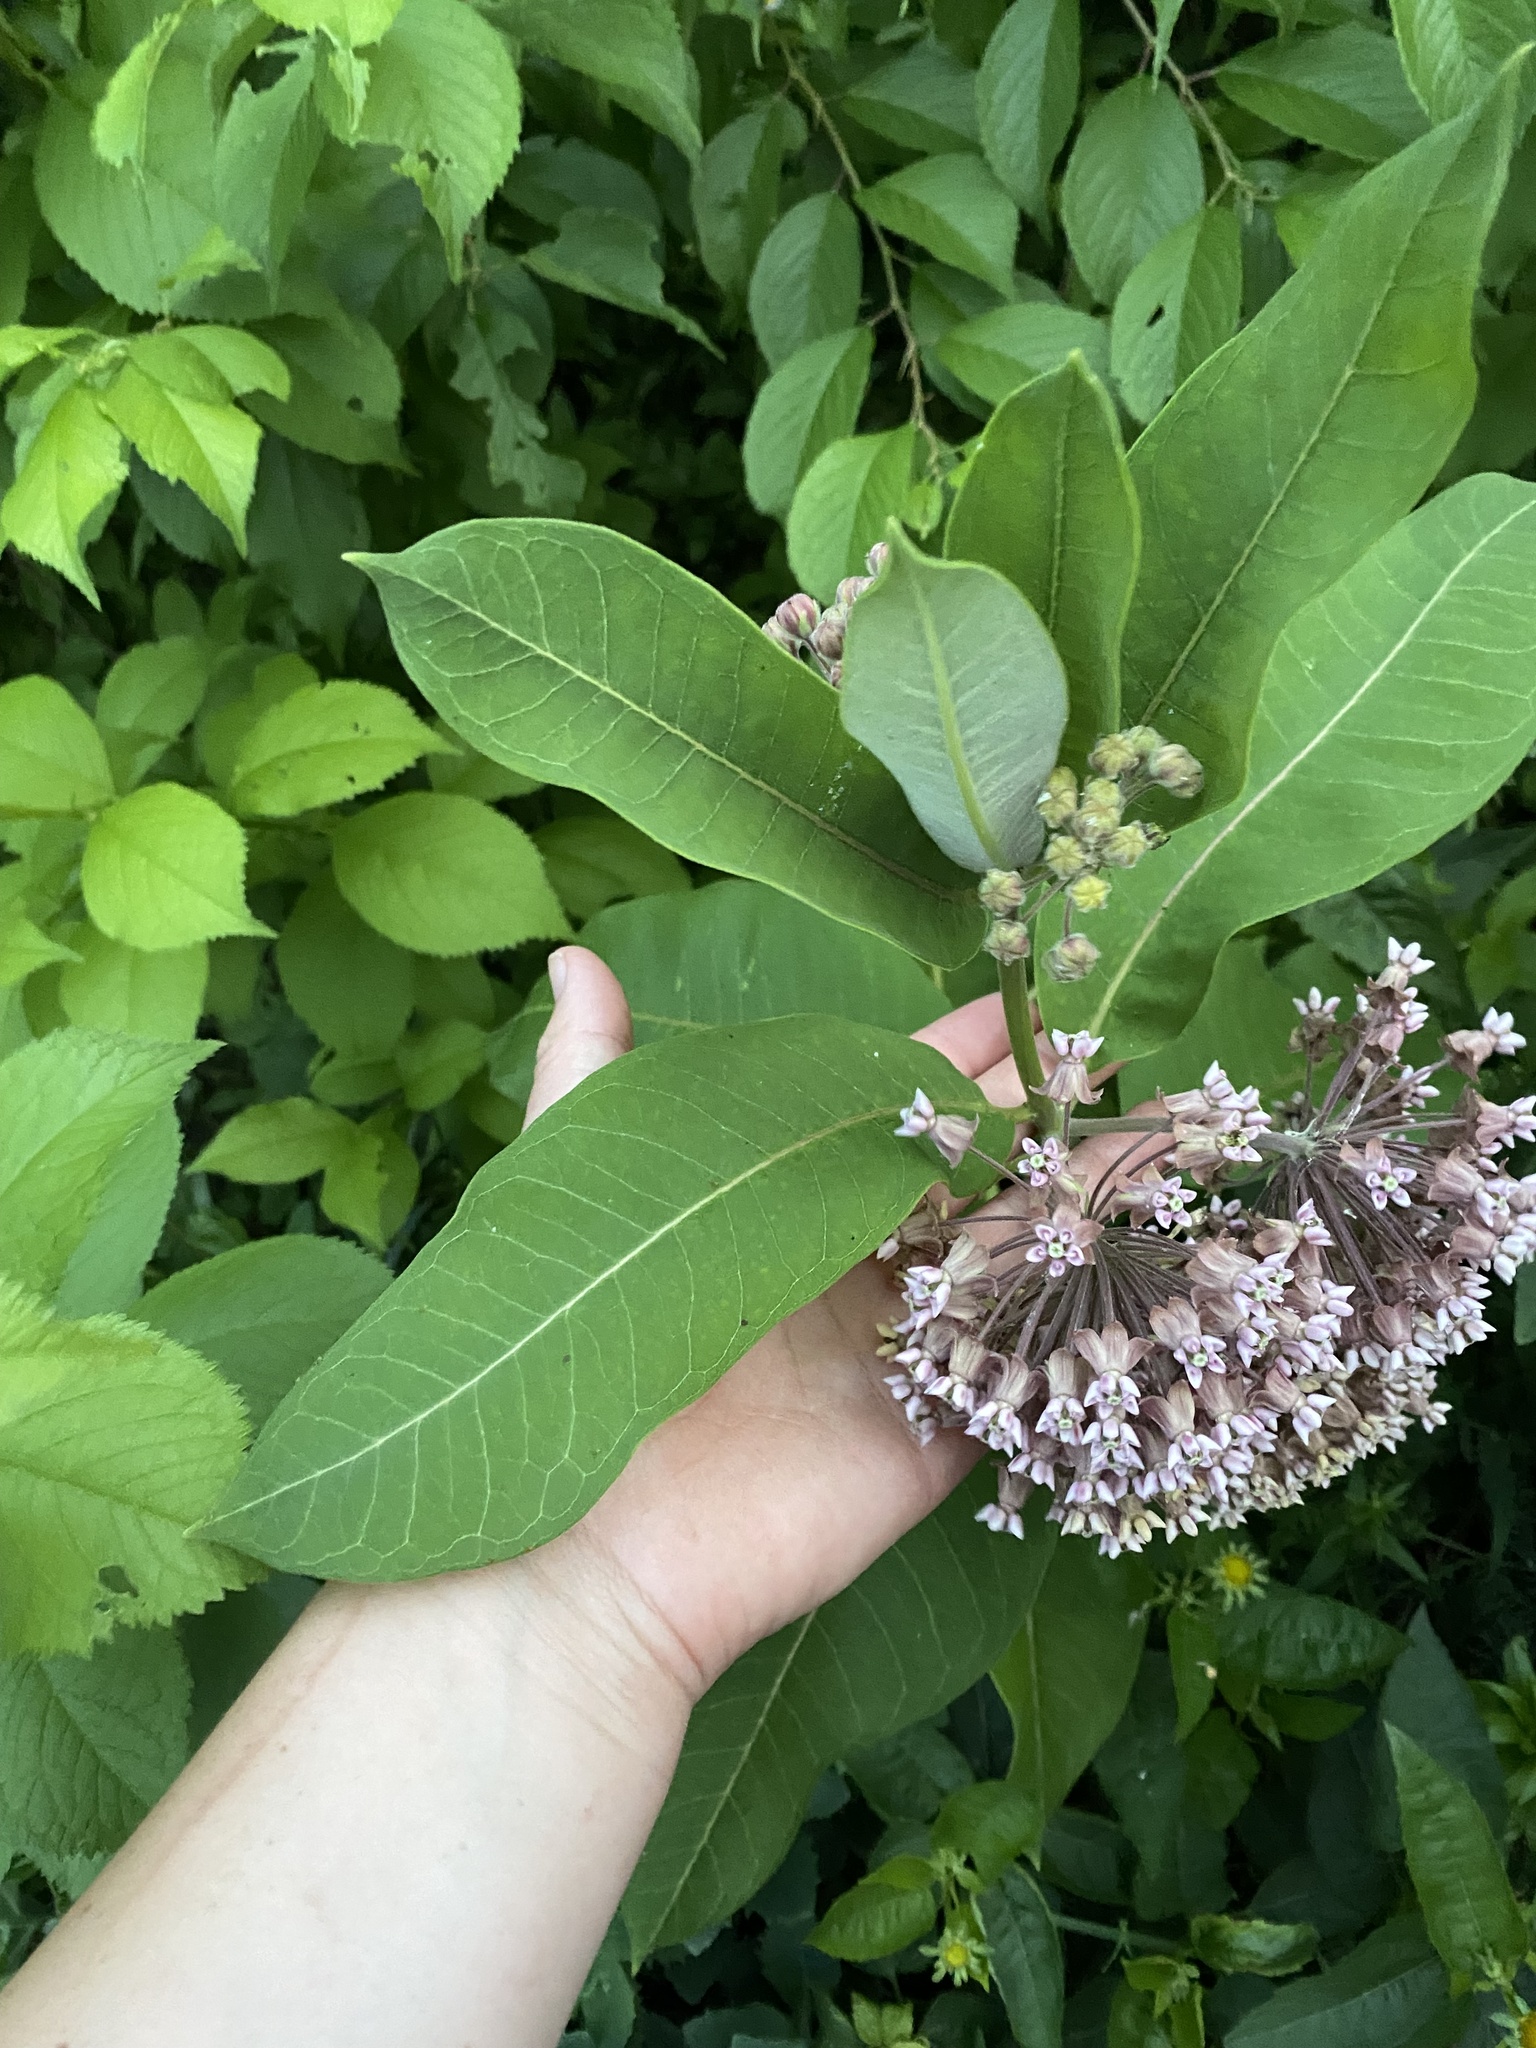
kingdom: Plantae
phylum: Tracheophyta
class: Magnoliopsida
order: Gentianales
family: Apocynaceae
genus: Asclepias
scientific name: Asclepias syriaca
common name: Common milkweed
